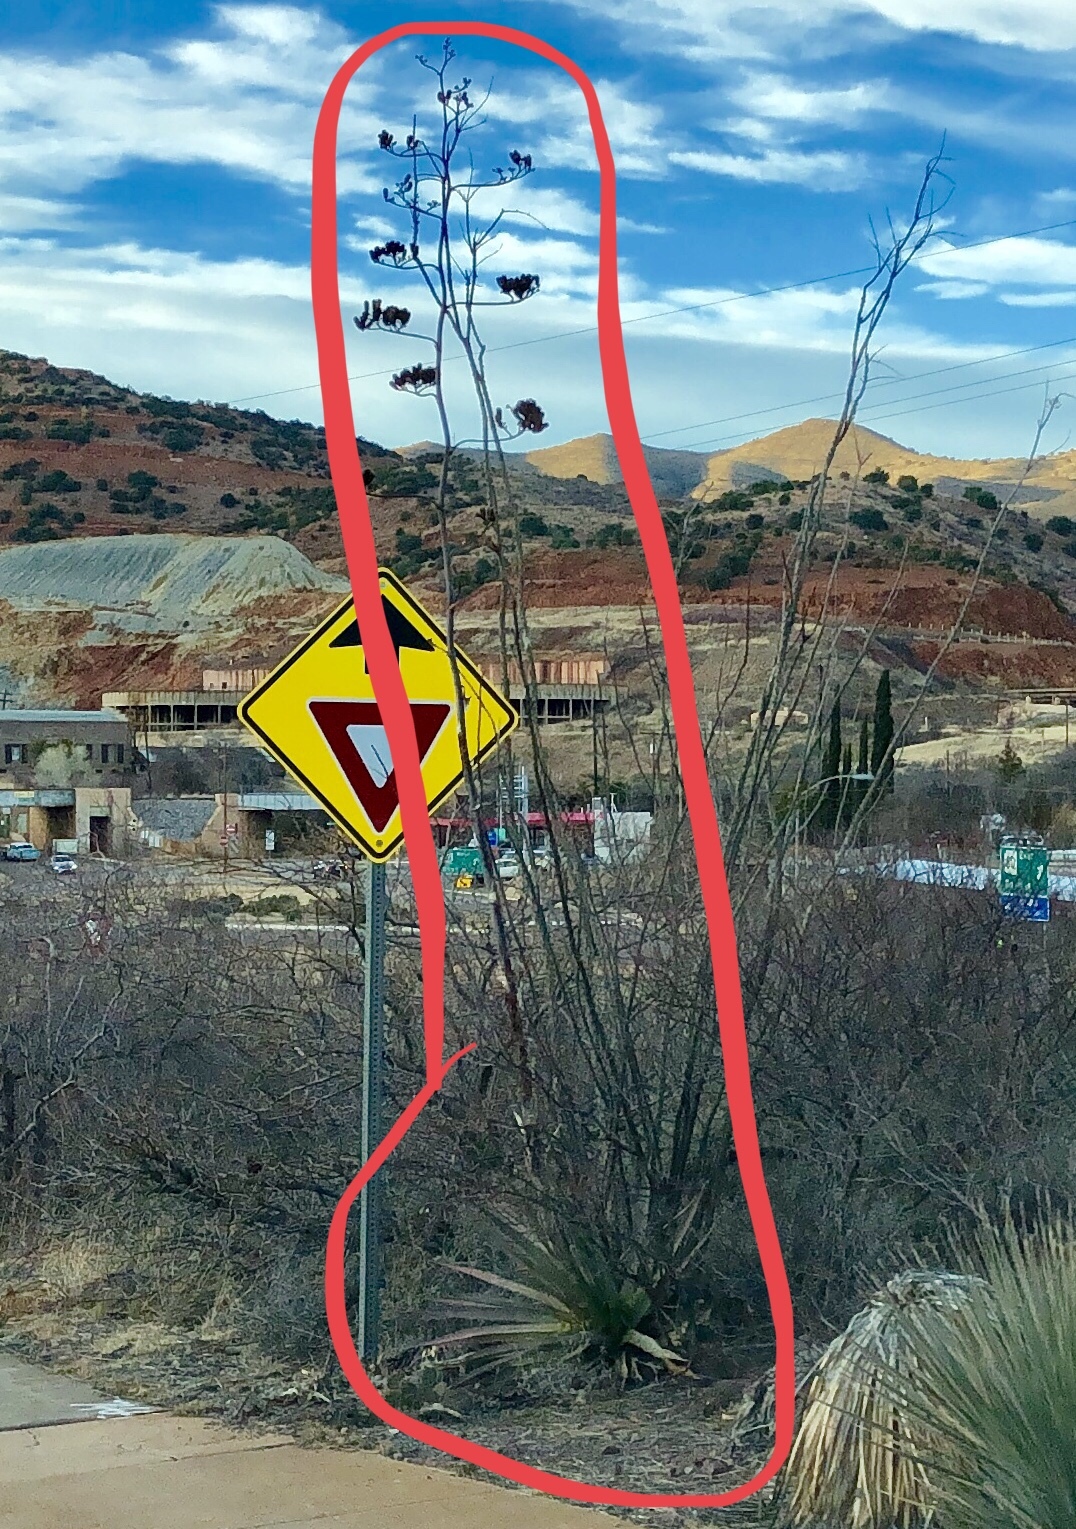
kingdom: Plantae
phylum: Tracheophyta
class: Liliopsida
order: Asparagales
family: Asparagaceae
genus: Agave
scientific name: Agave palmeri
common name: Palmer agave
